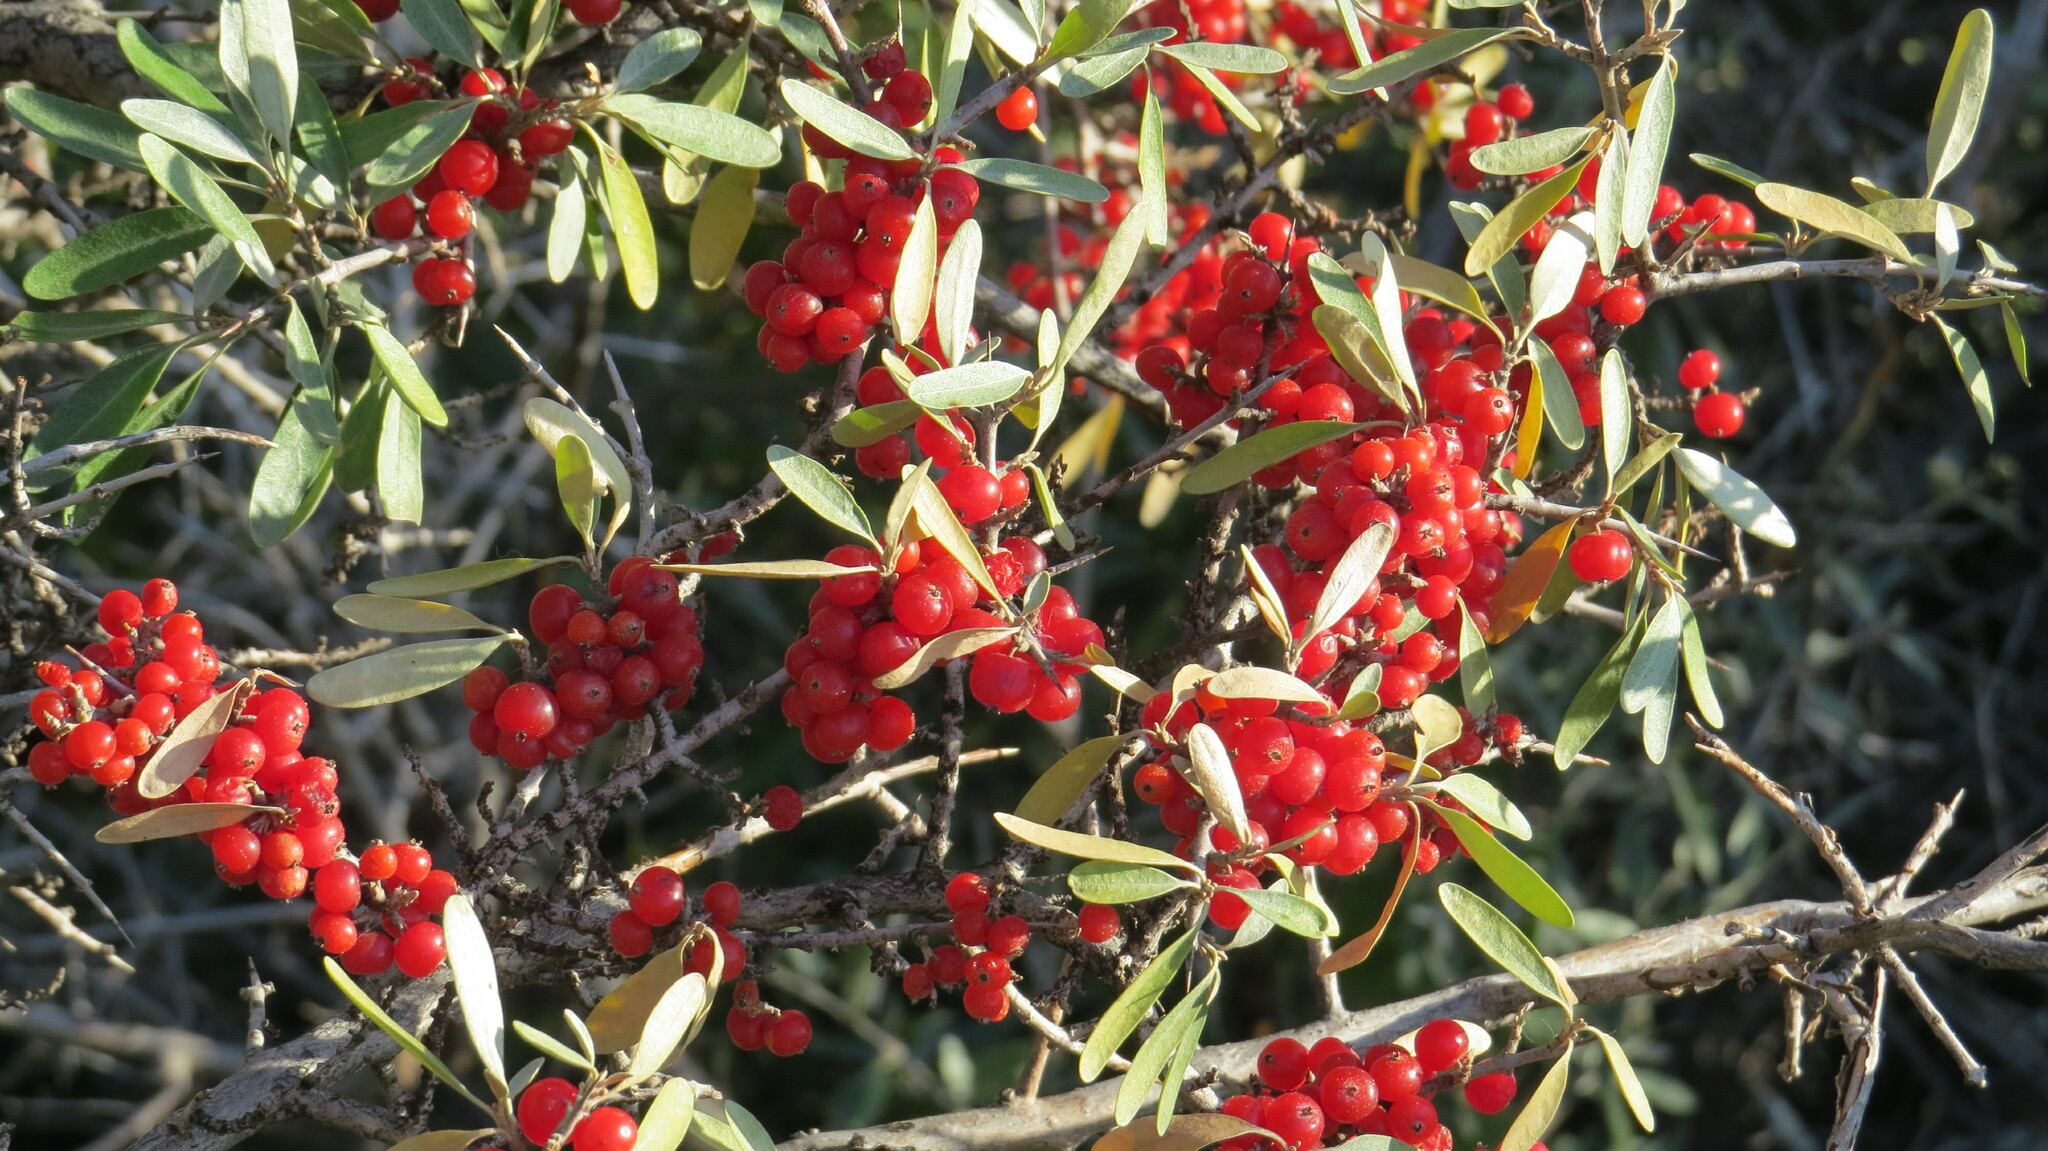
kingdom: Plantae
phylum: Tracheophyta
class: Magnoliopsida
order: Rosales
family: Elaeagnaceae
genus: Shepherdia
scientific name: Shepherdia argentea
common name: Silver buffaloberry
